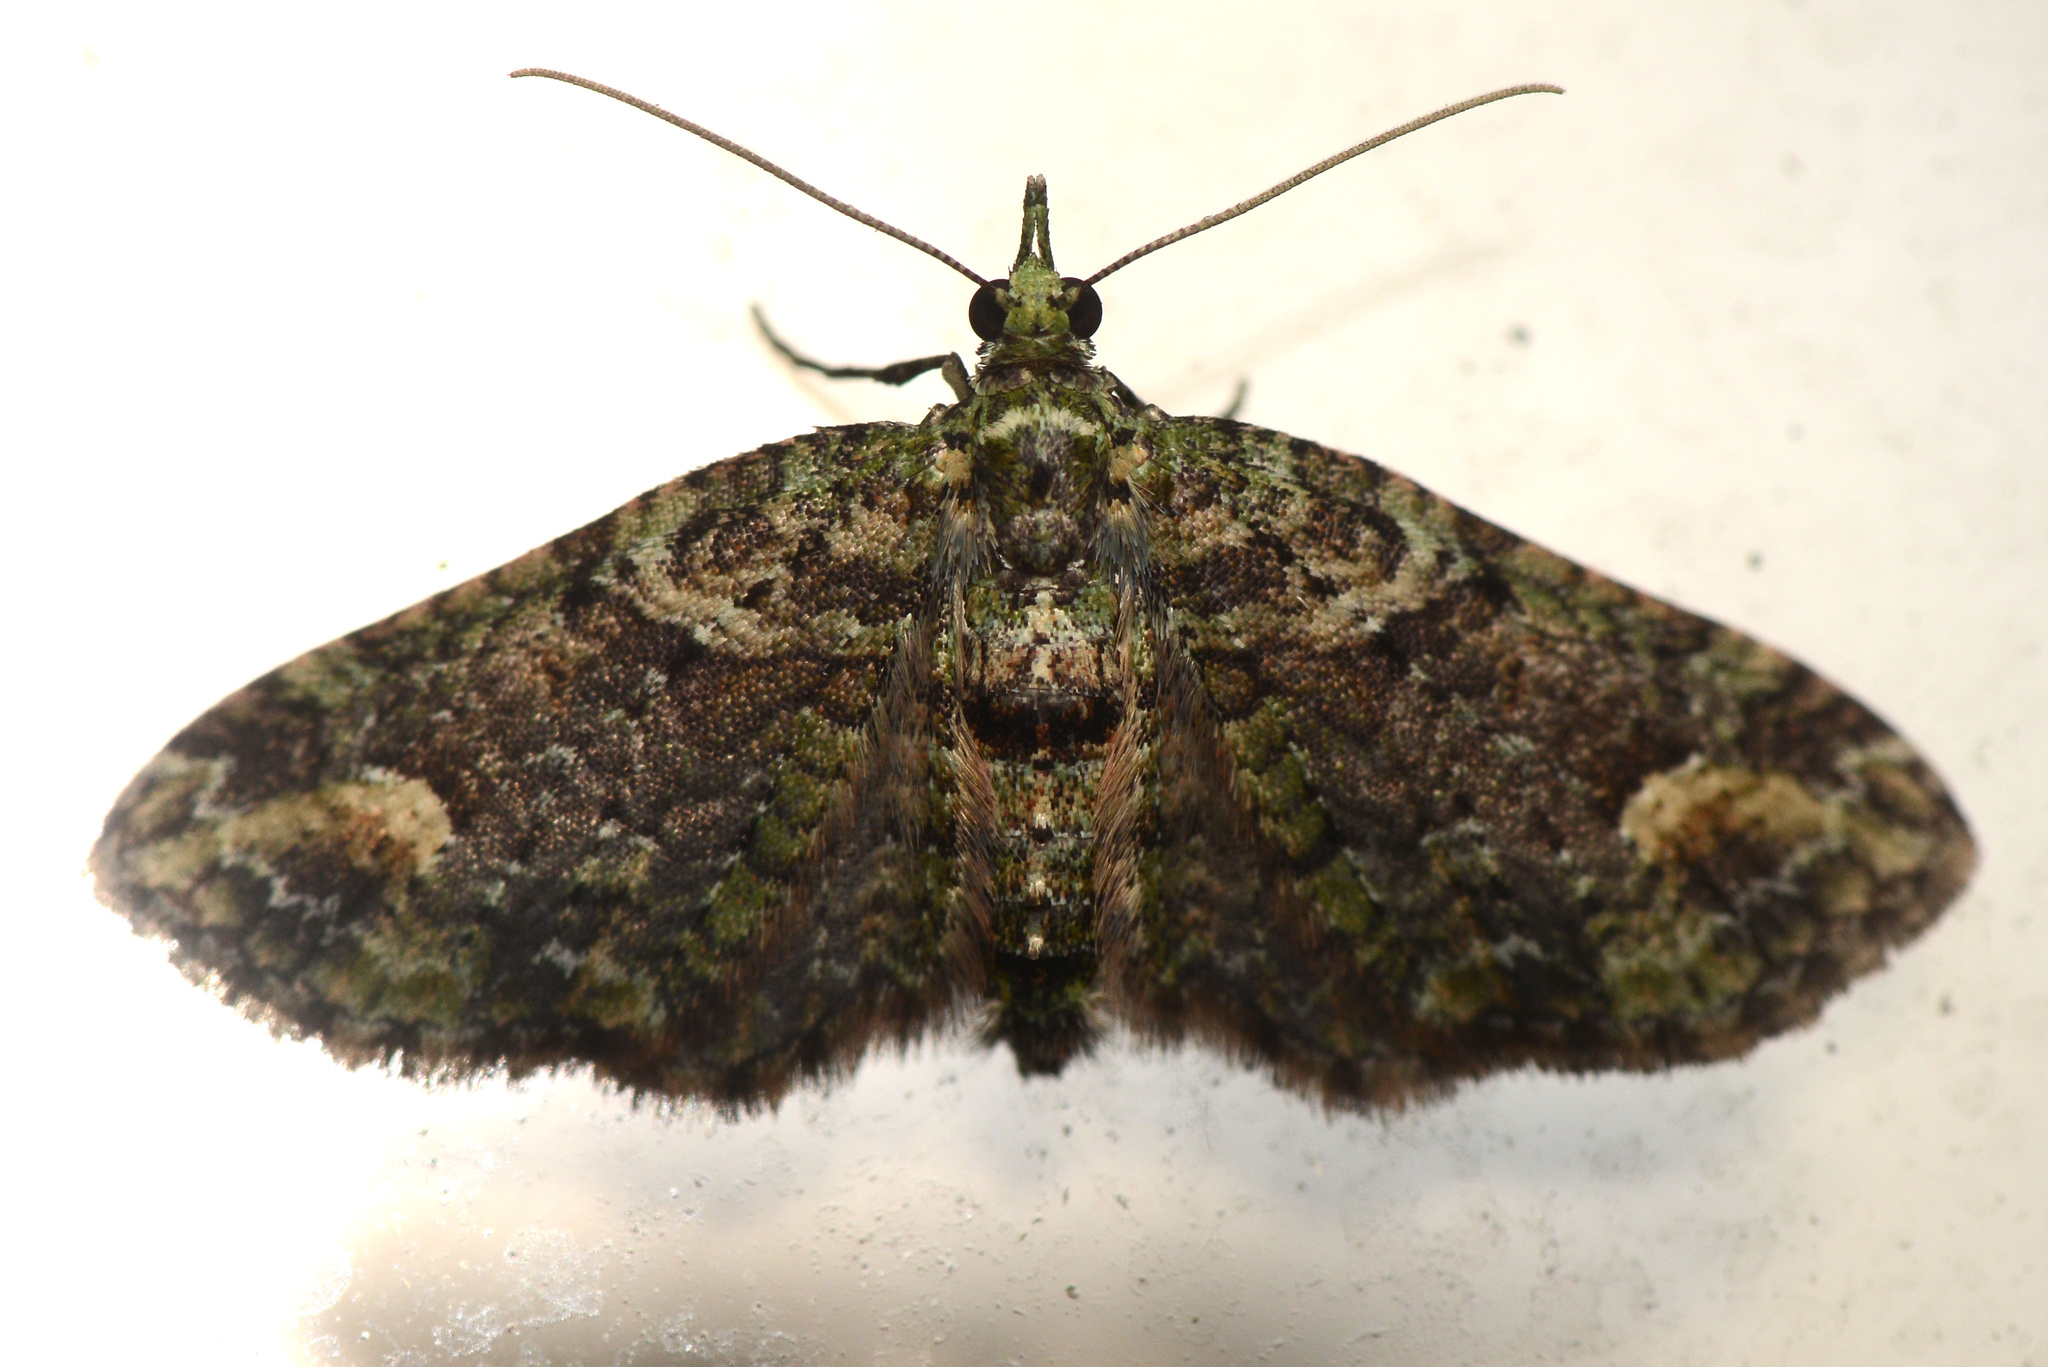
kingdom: Animalia
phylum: Arthropoda
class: Insecta
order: Lepidoptera
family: Geometridae
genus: Idaea
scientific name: Idaea mutanda
